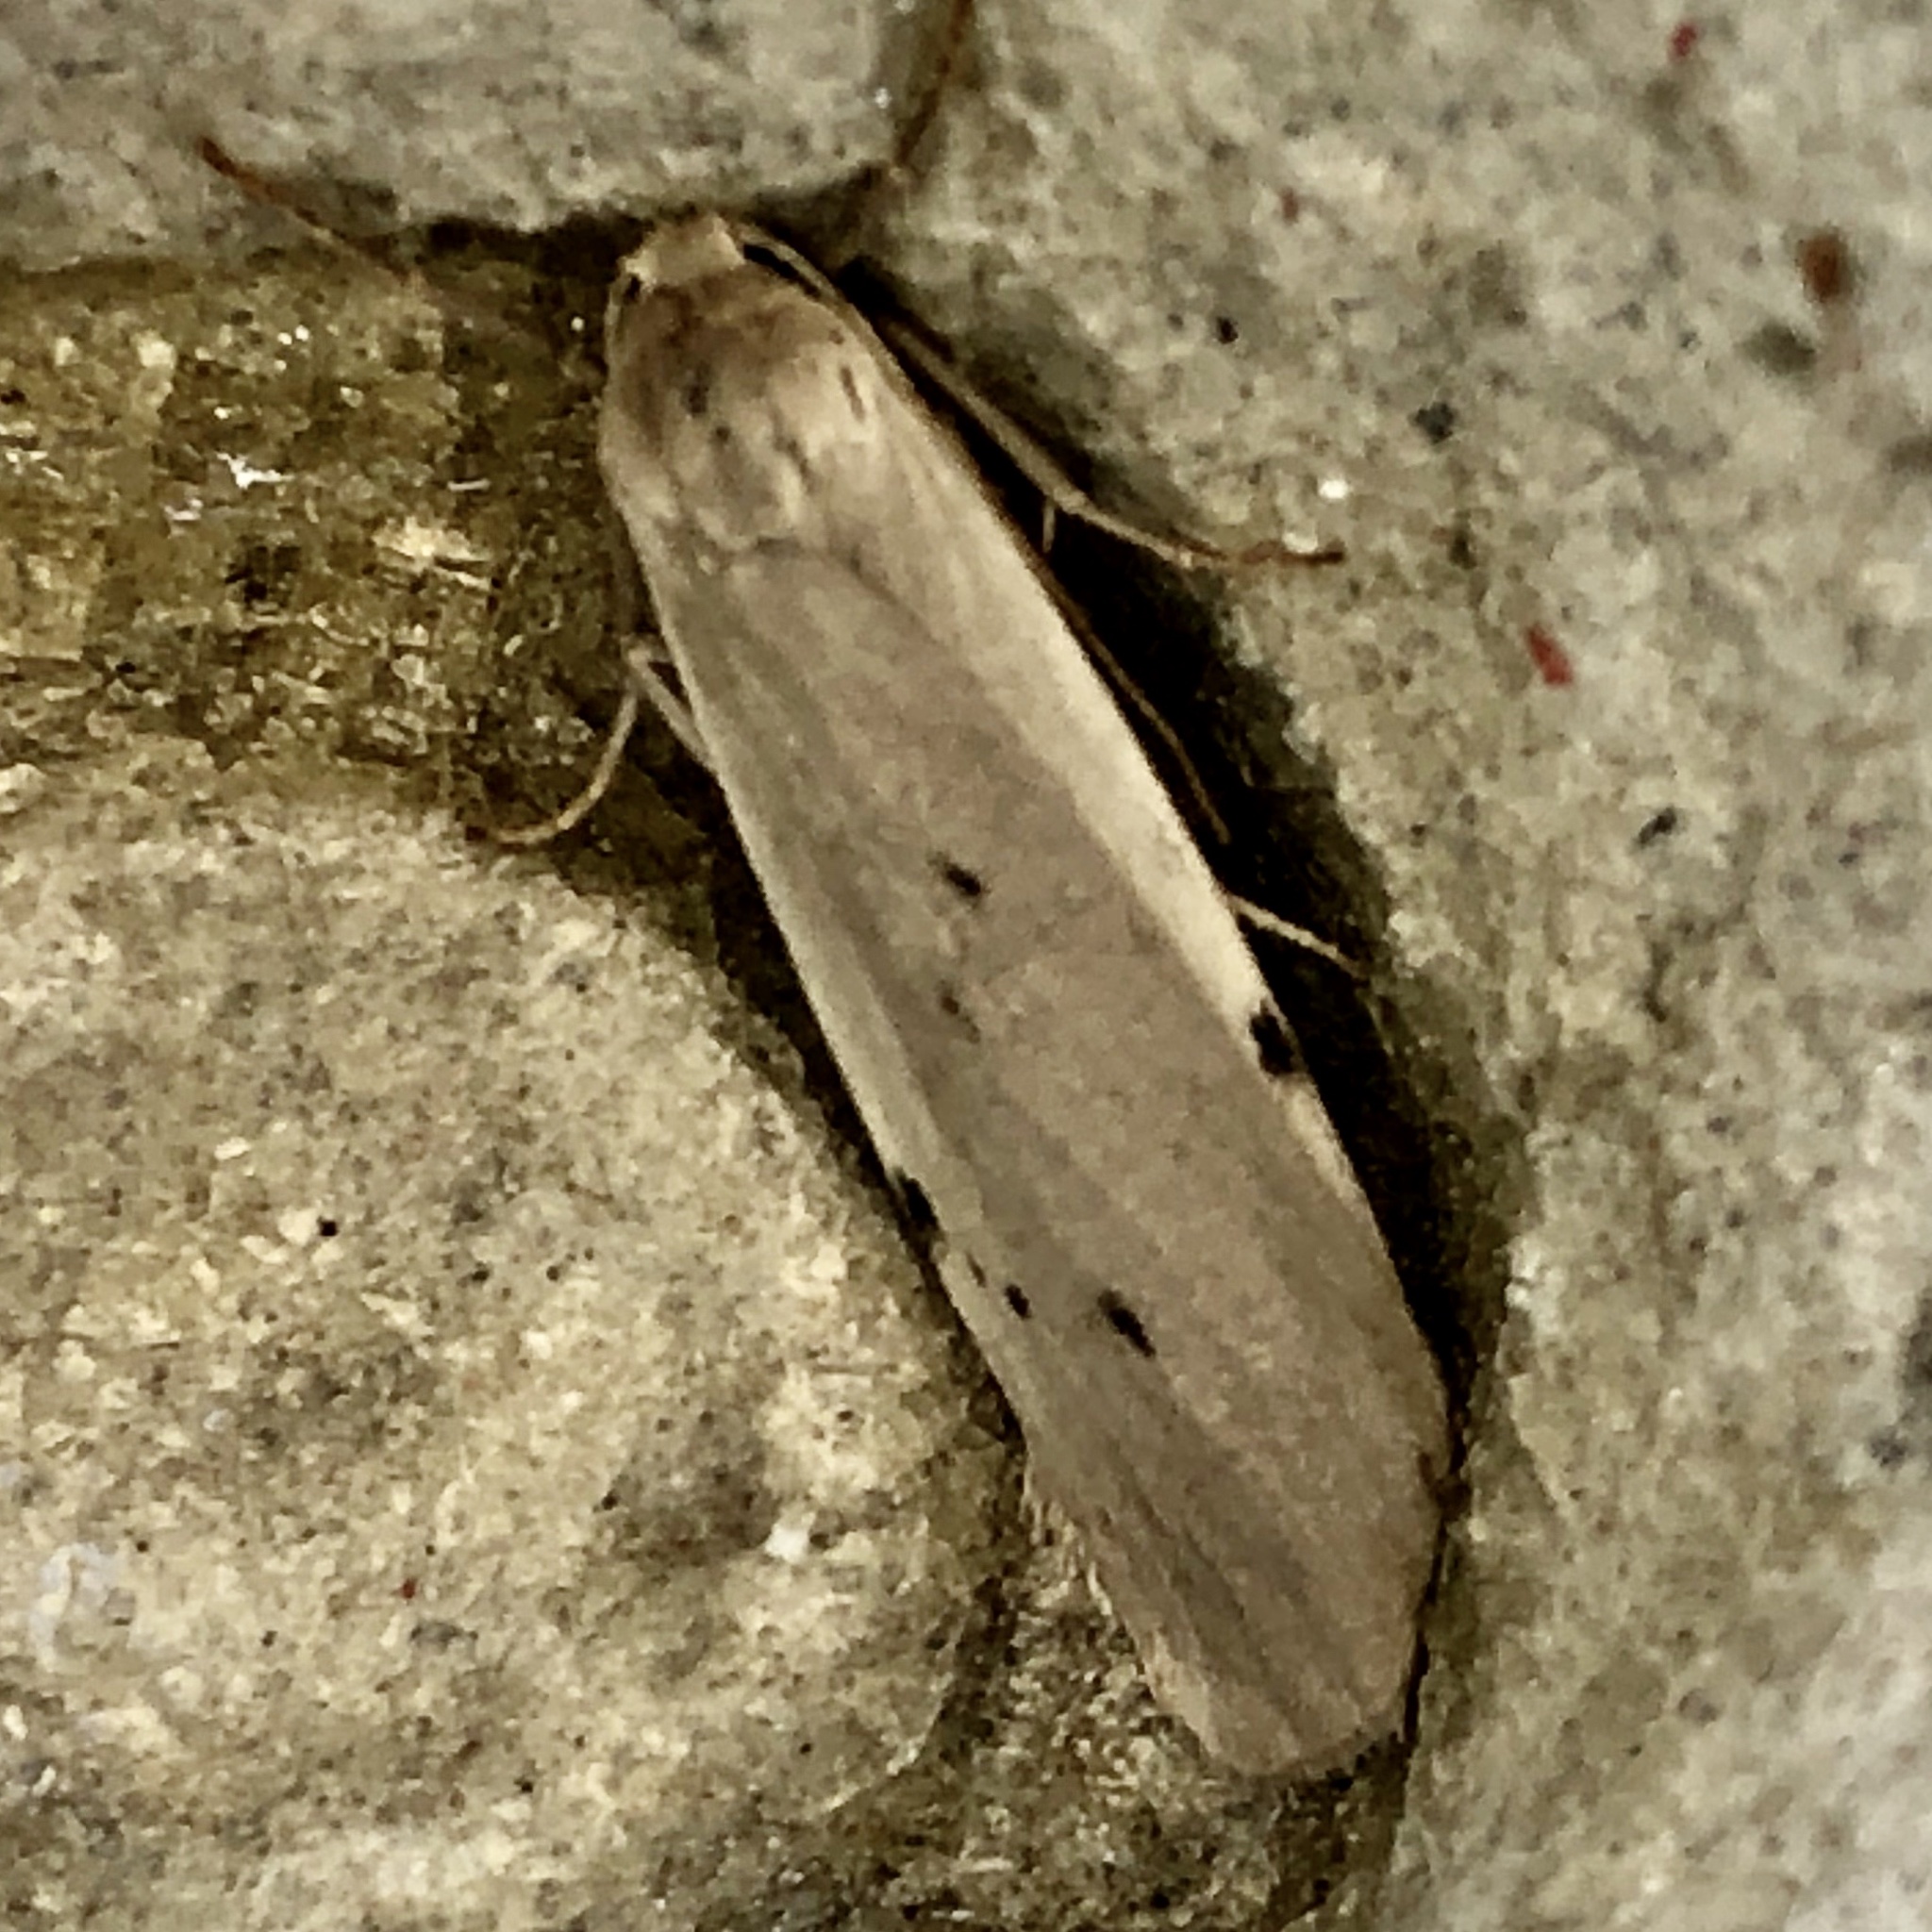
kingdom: Animalia
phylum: Arthropoda
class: Insecta
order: Lepidoptera
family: Erebidae
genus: Pelosia
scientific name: Pelosia muscerda
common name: Dotted footman
